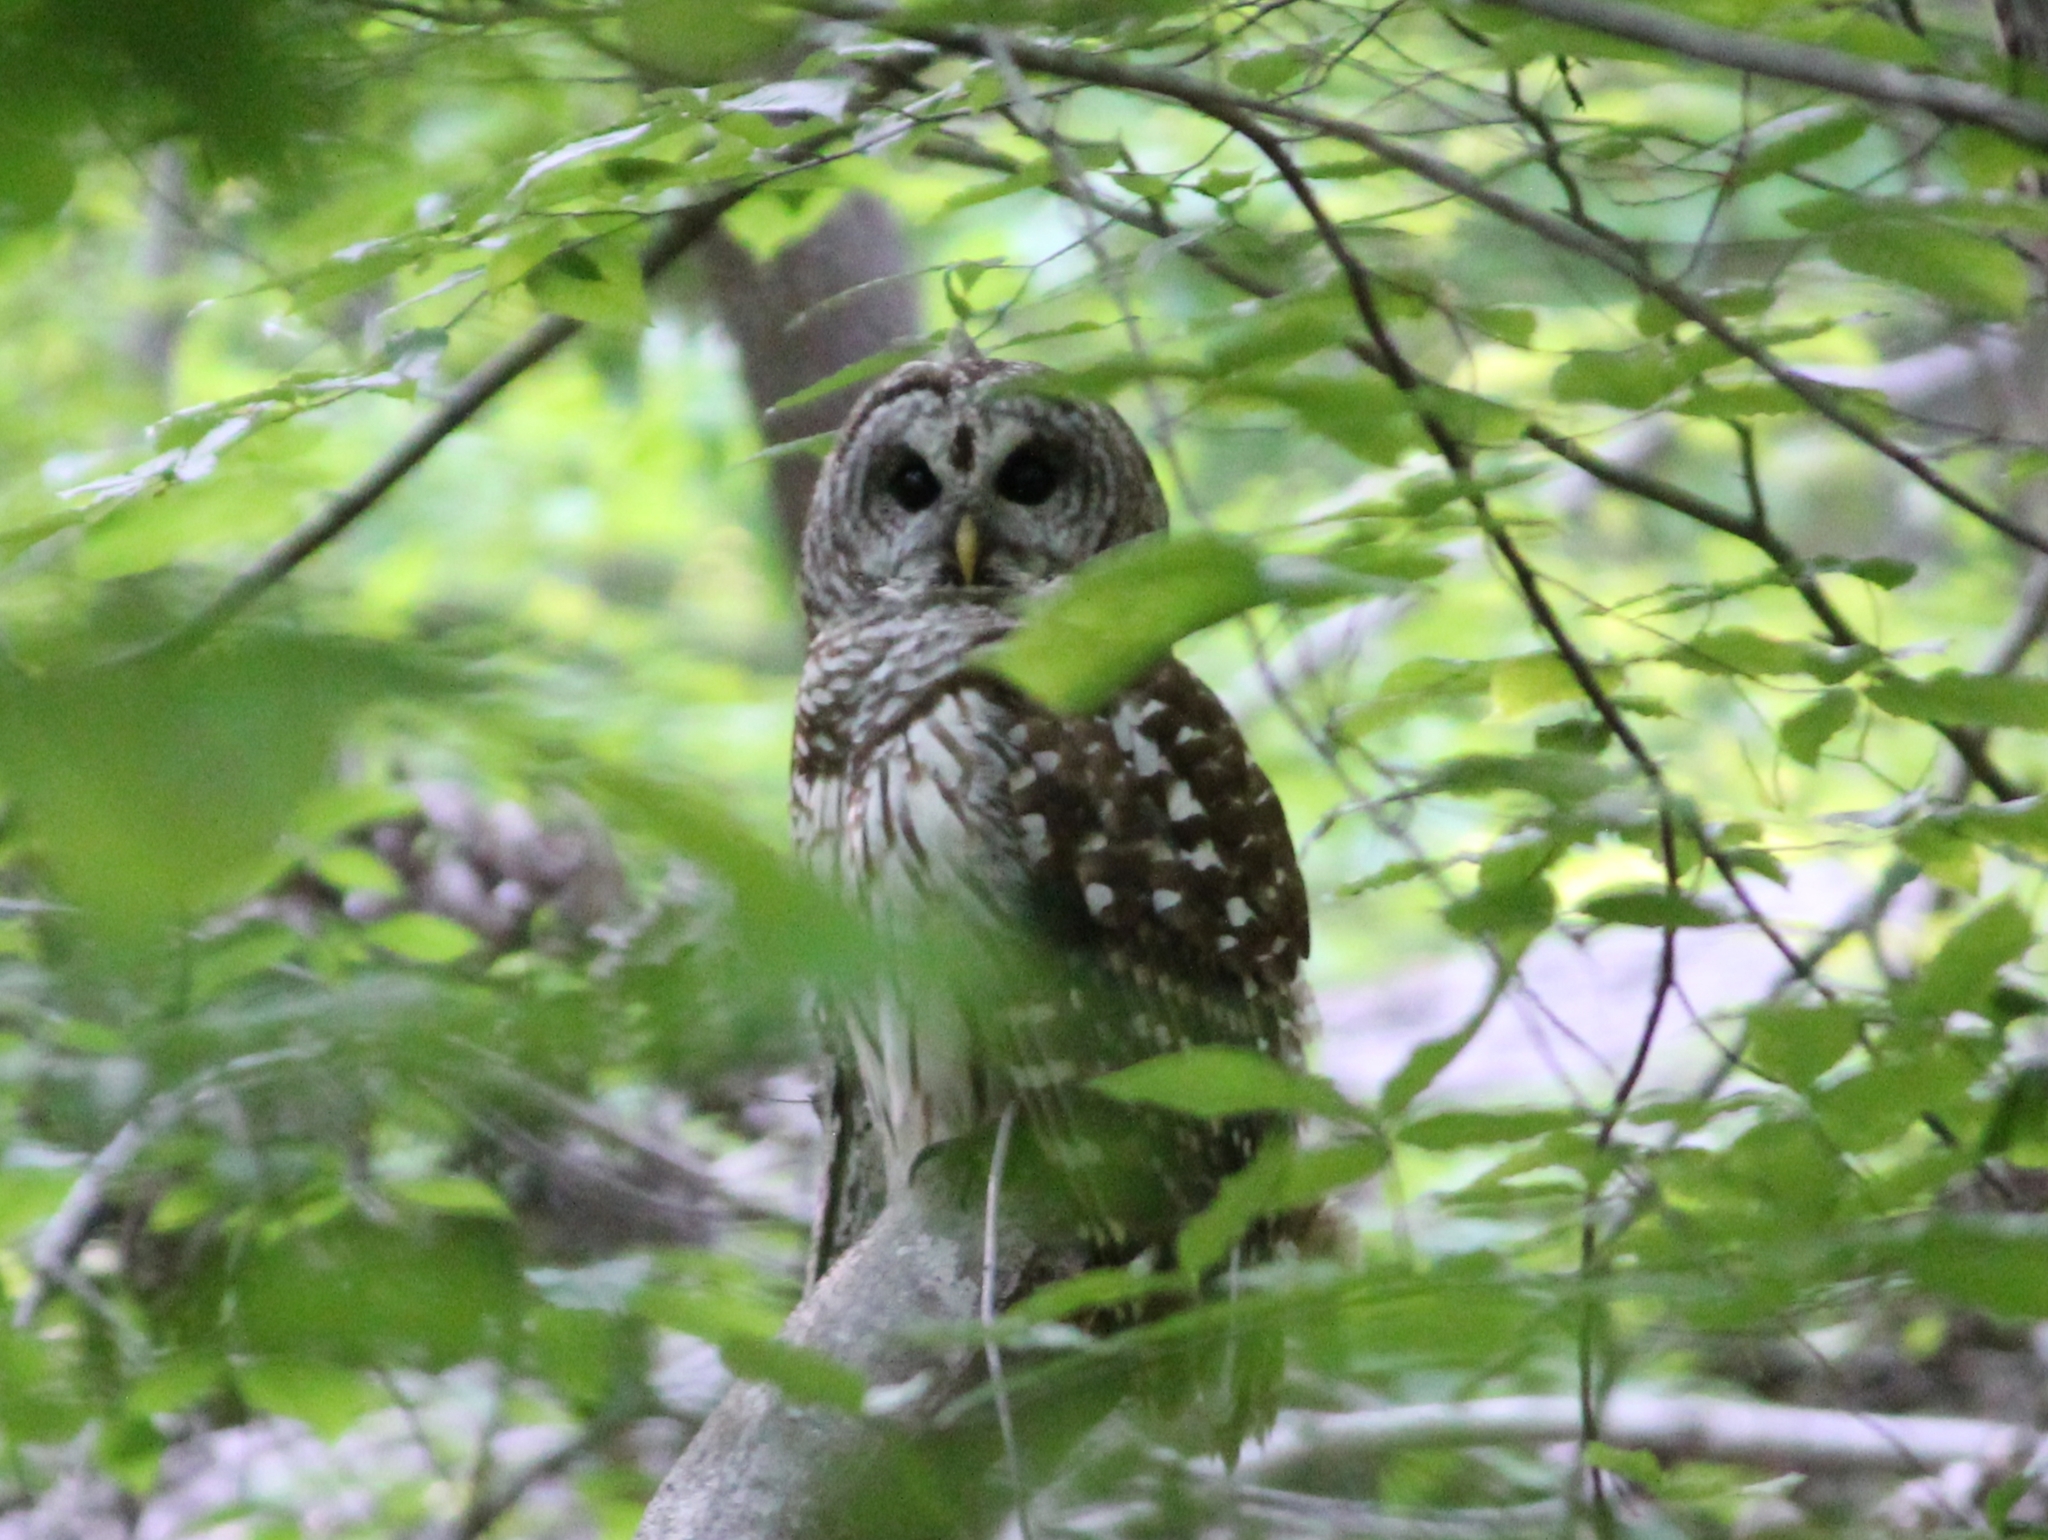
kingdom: Animalia
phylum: Chordata
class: Aves
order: Strigiformes
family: Strigidae
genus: Strix
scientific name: Strix varia
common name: Barred owl
